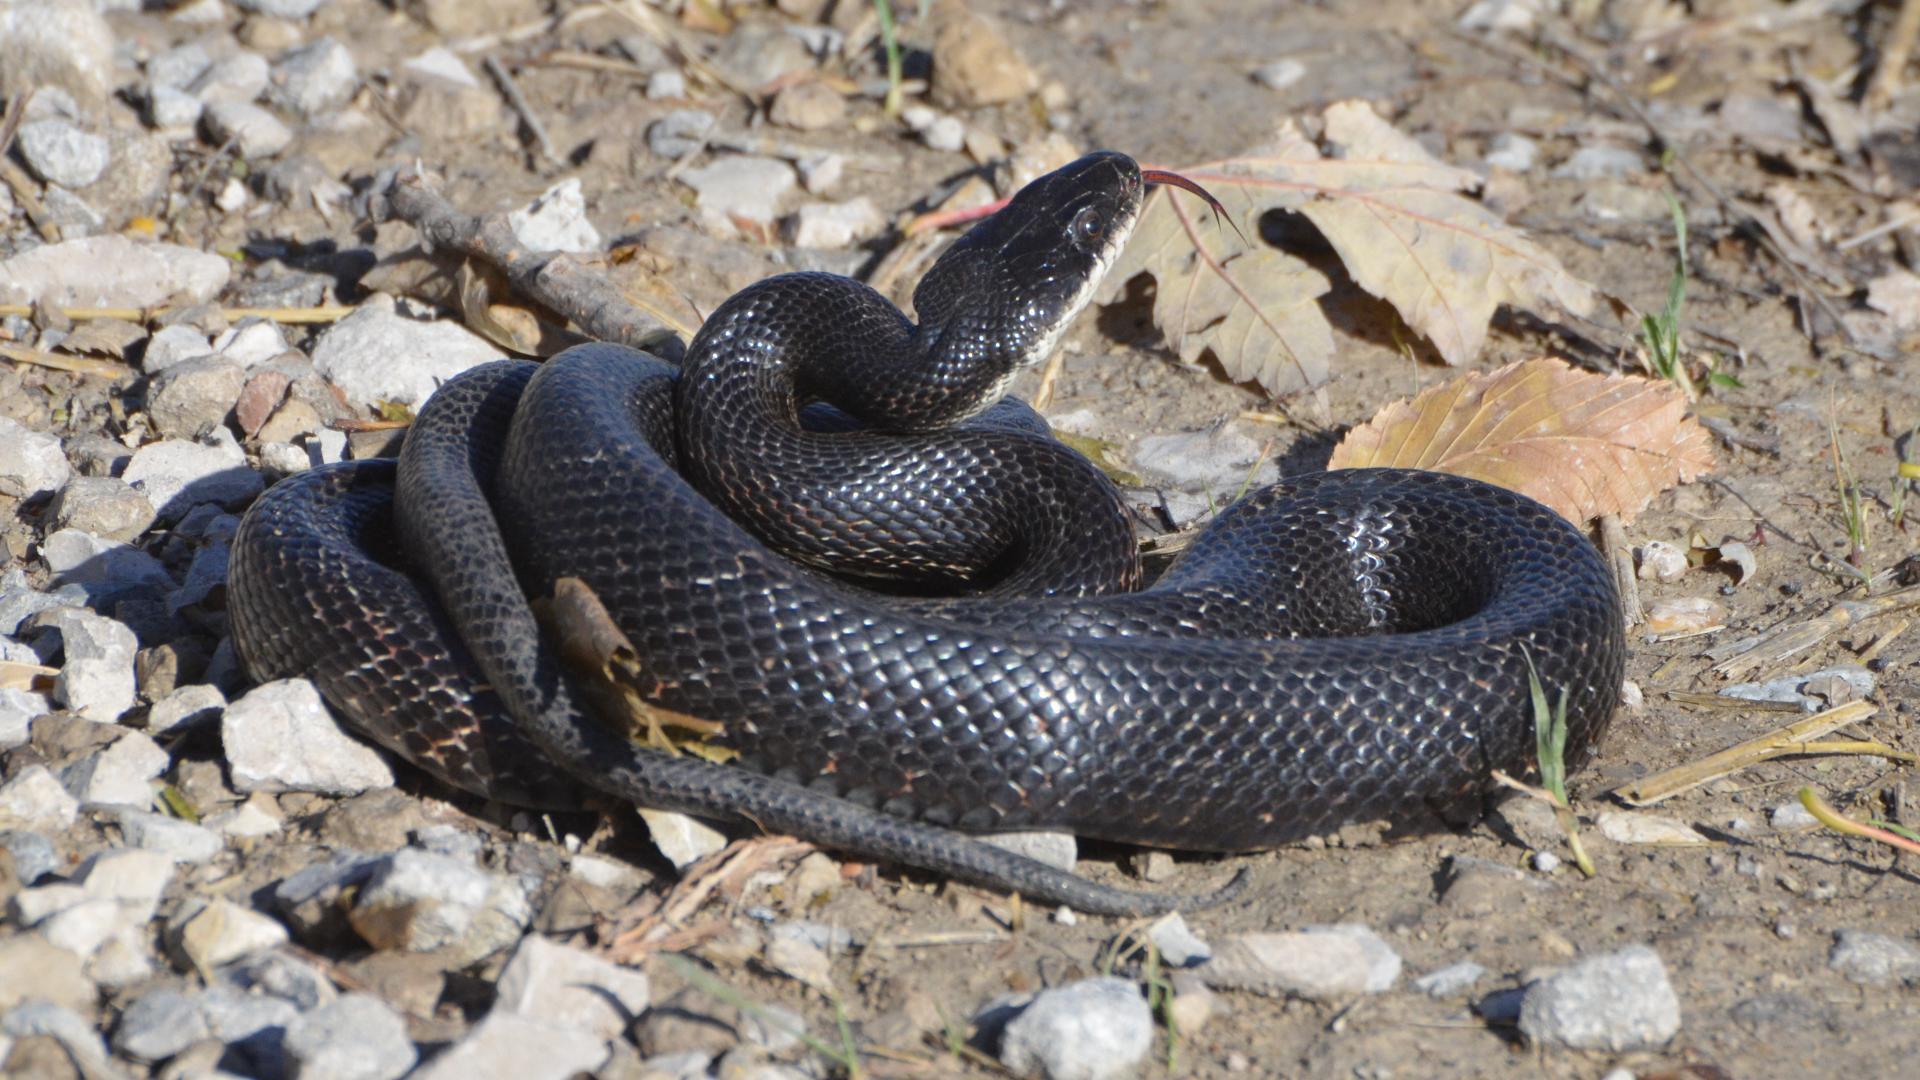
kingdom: Animalia
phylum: Chordata
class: Squamata
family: Colubridae
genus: Pantherophis
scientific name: Pantherophis obsoletus
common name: Black rat snake
